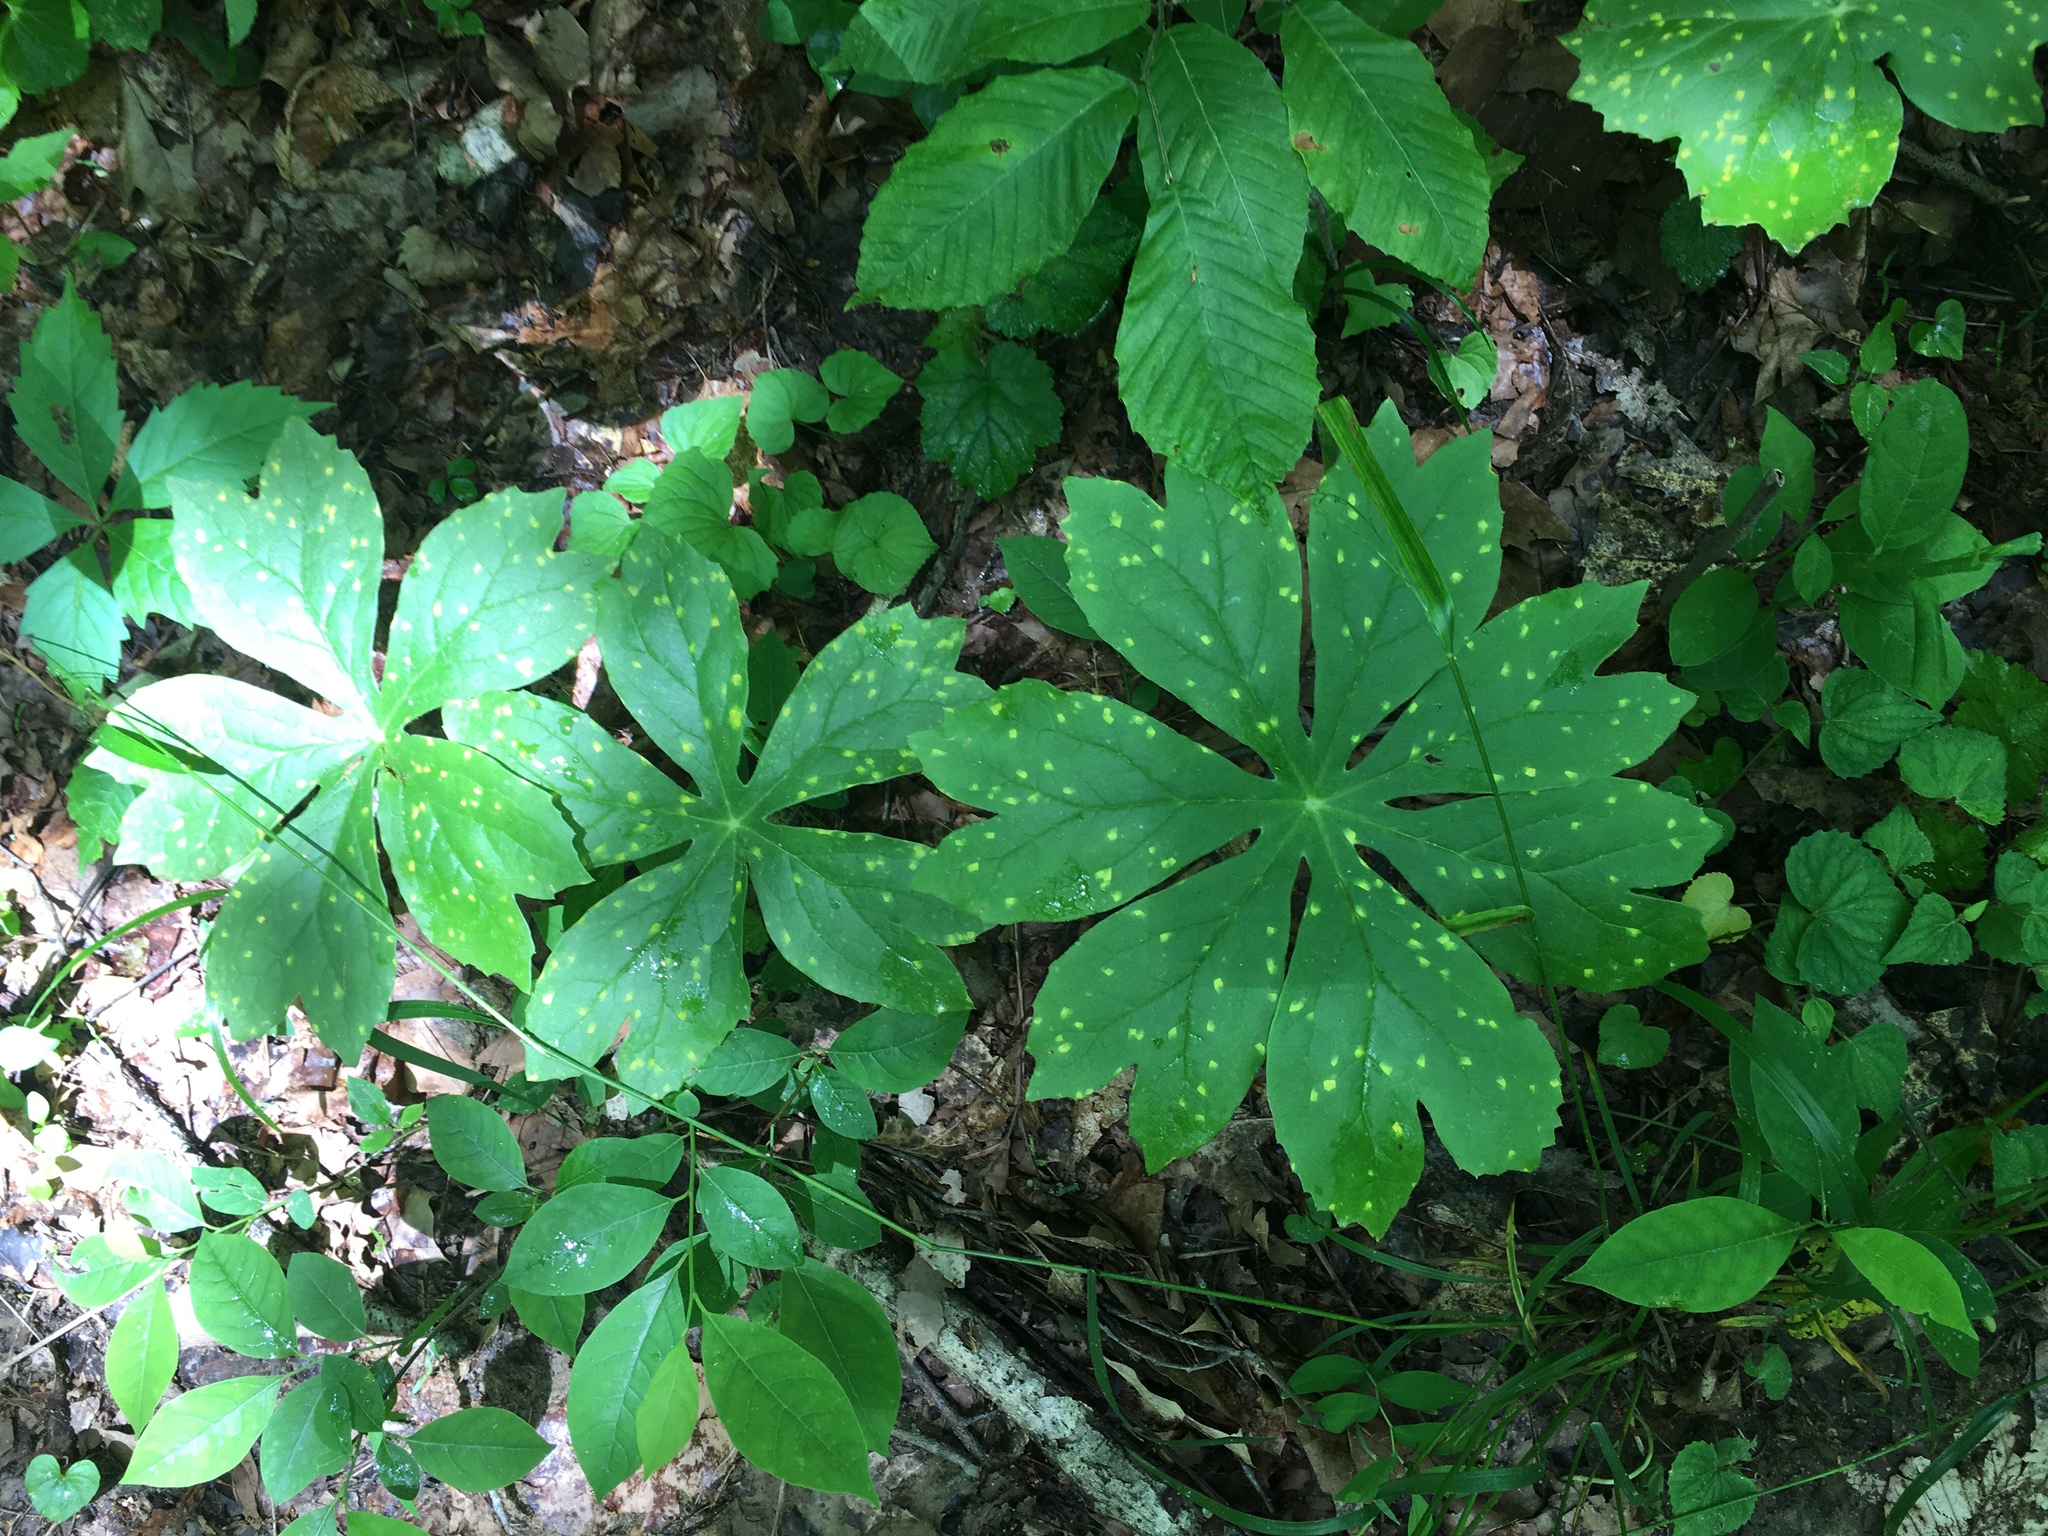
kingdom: Plantae
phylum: Tracheophyta
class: Magnoliopsida
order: Ranunculales
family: Berberidaceae
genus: Podophyllum
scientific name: Podophyllum peltatum
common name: Wild mandrake
